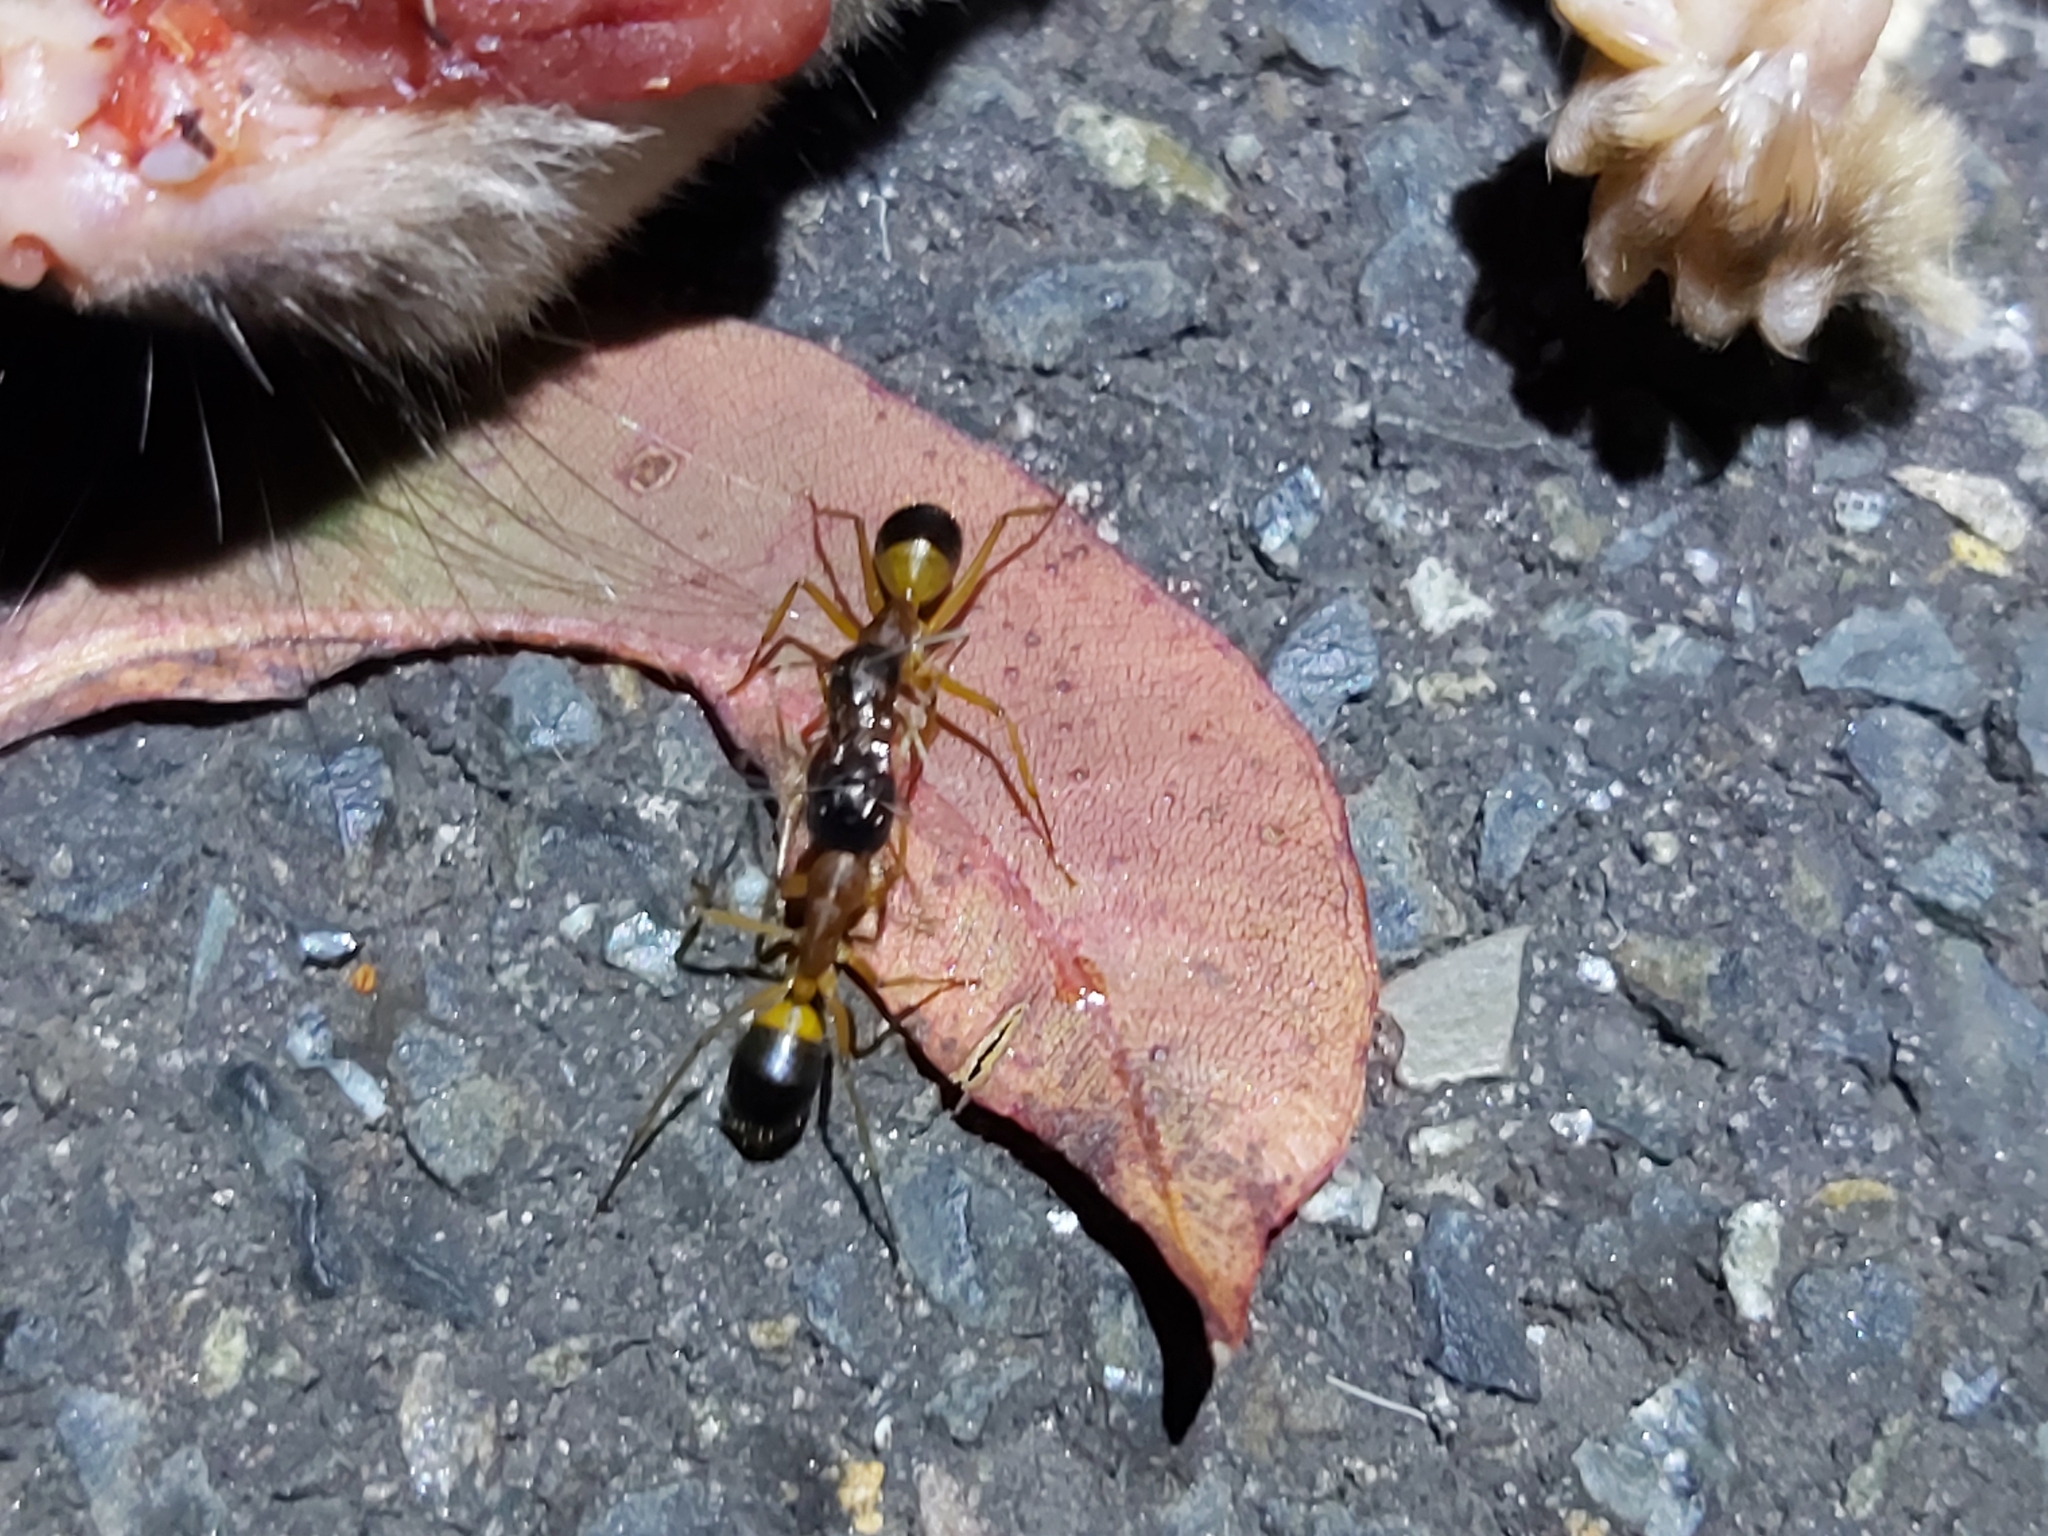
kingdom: Animalia
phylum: Arthropoda
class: Insecta
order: Hymenoptera
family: Formicidae
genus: Camponotus
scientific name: Camponotus consobrinus
